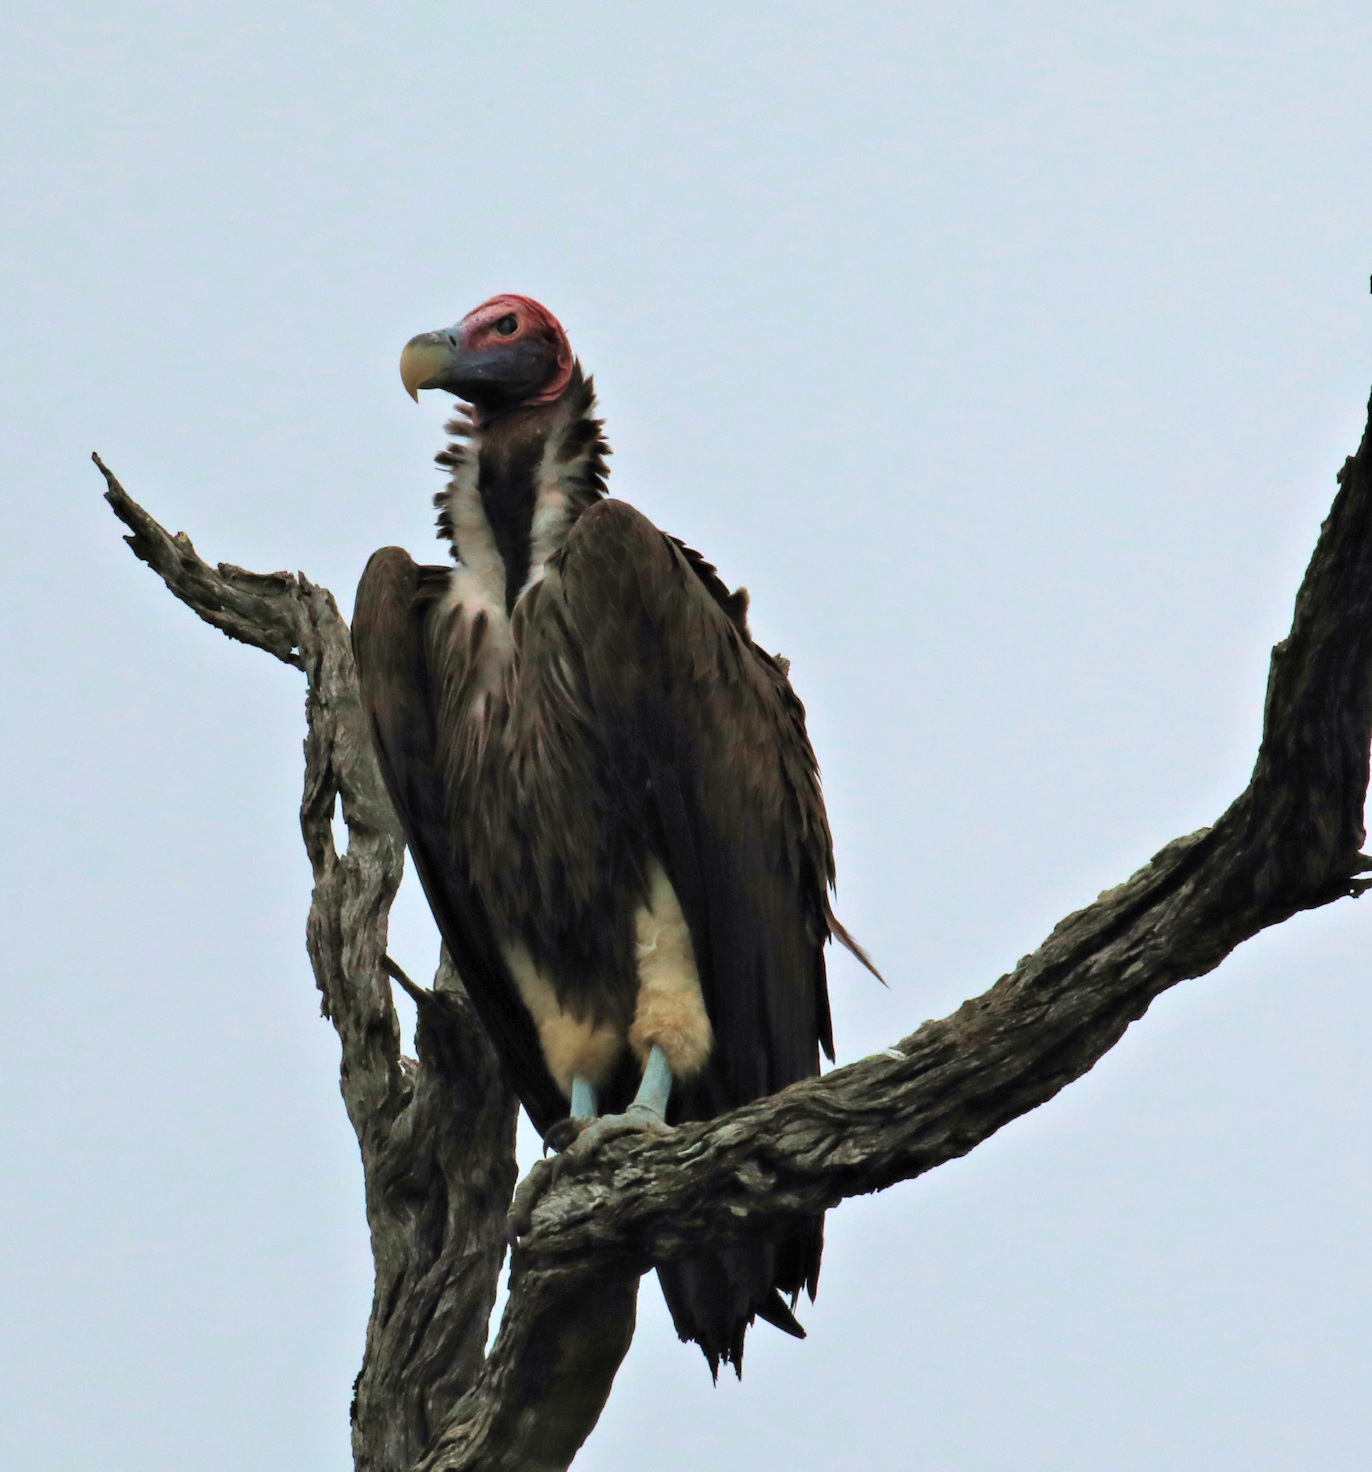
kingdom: Animalia
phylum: Chordata
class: Aves
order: Accipitriformes
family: Accipitridae
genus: Torgos
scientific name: Torgos tracheliotos
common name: Lappet-faced vulture
